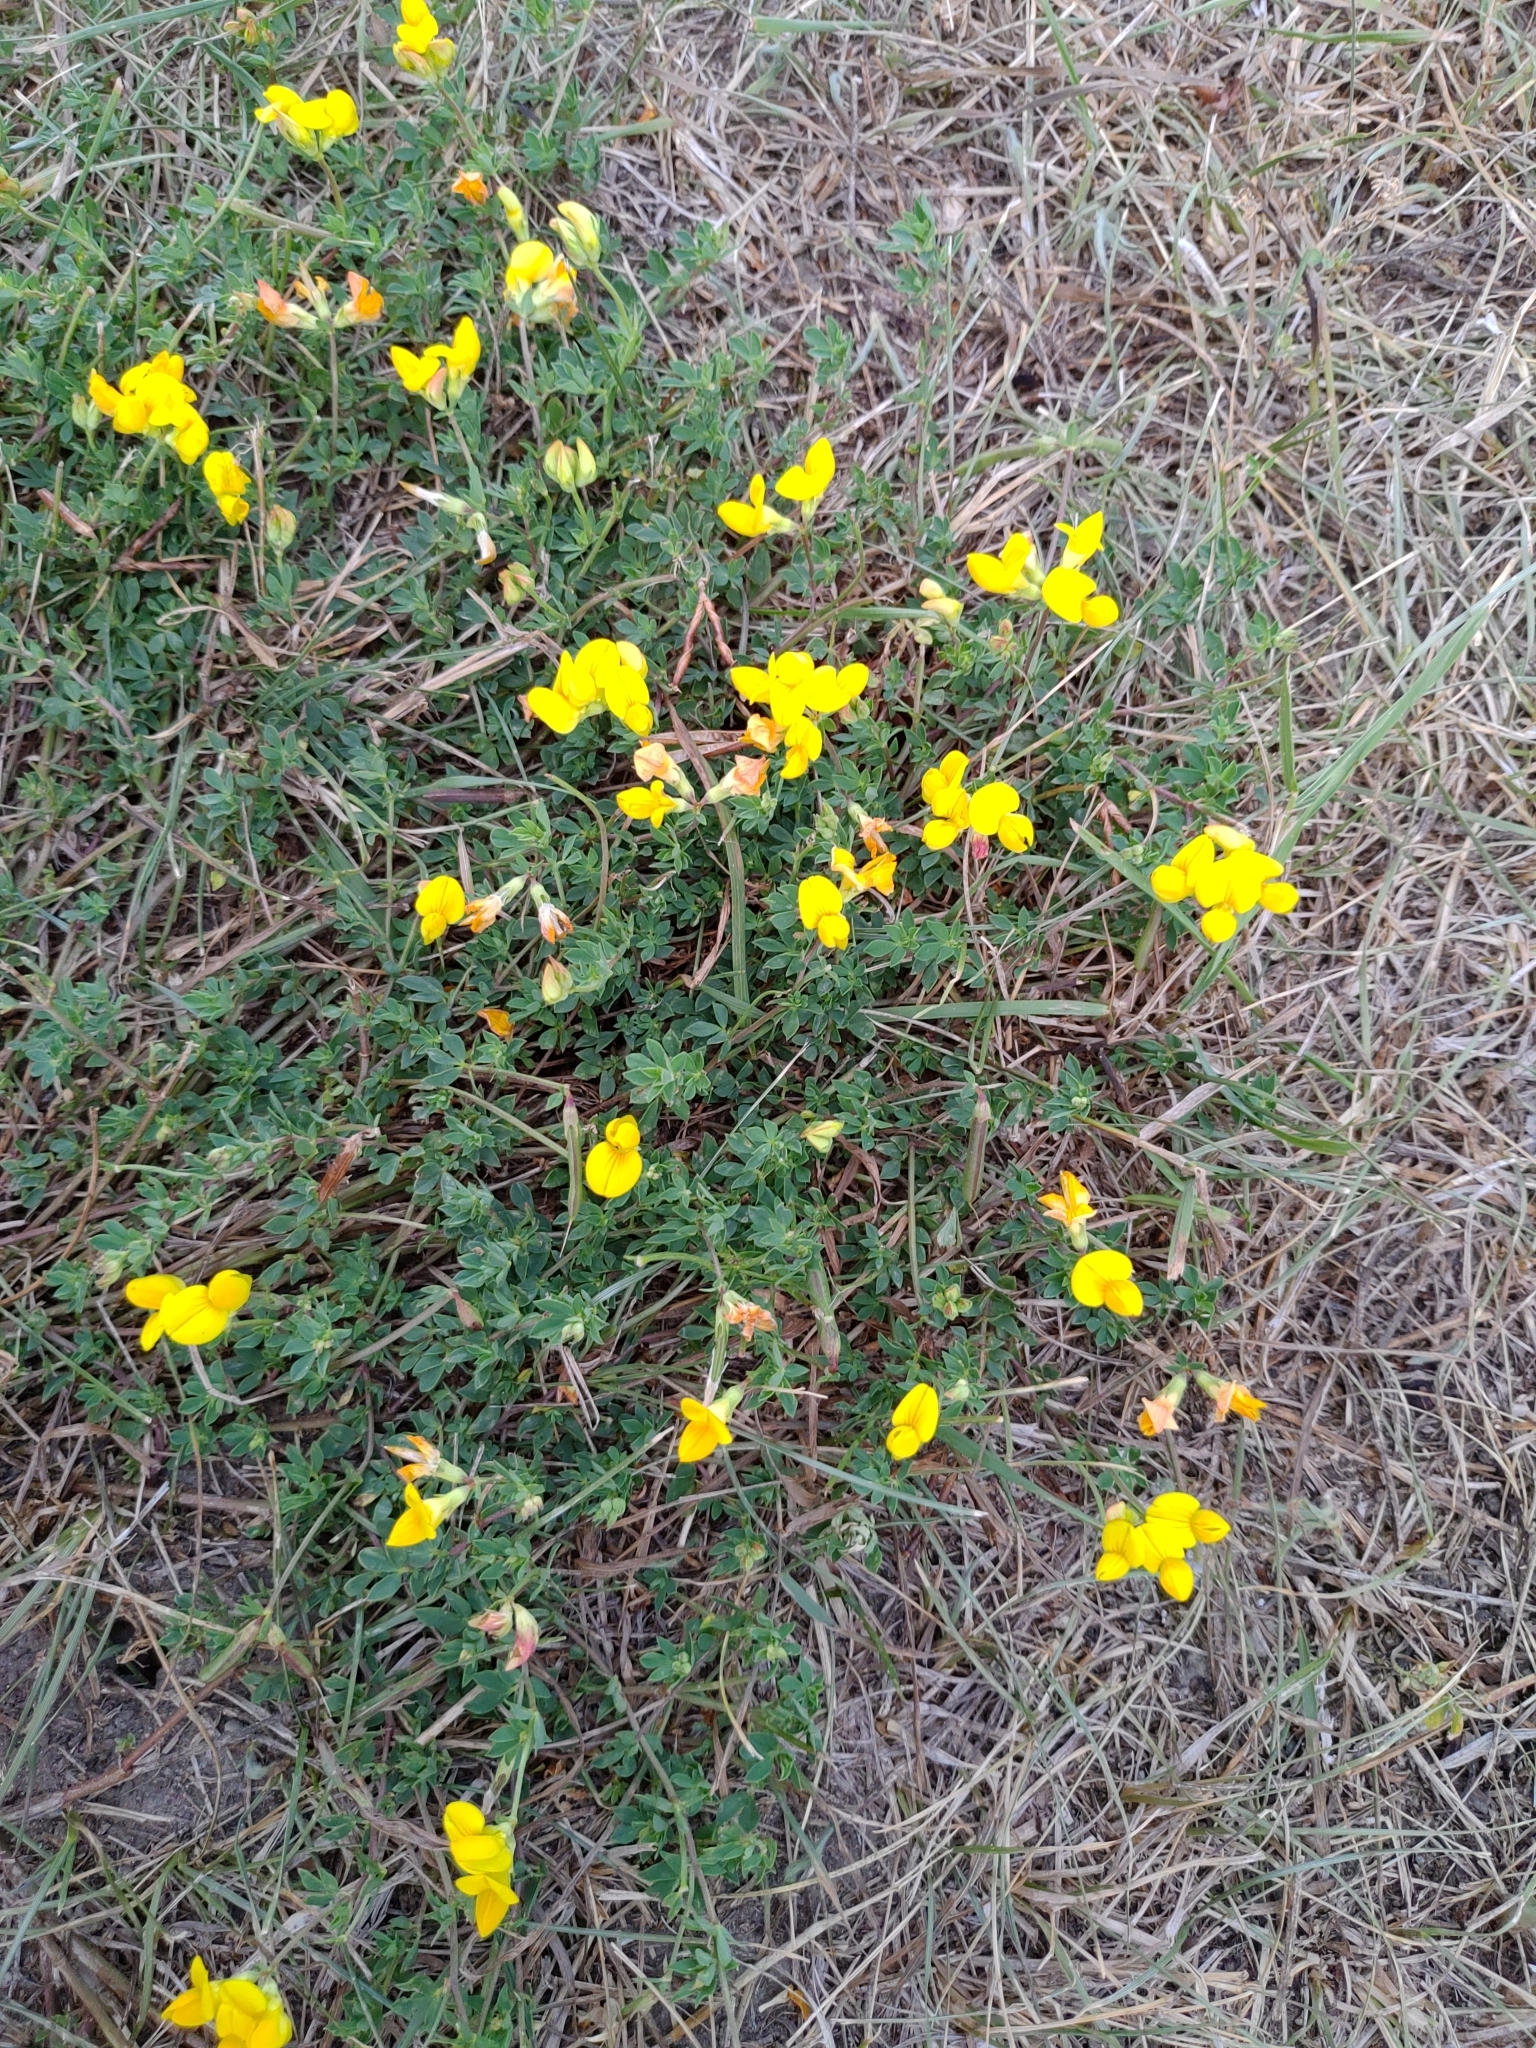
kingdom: Plantae
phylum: Tracheophyta
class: Magnoliopsida
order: Fabales
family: Fabaceae
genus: Lotus
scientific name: Lotus corniculatus
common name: Common bird's-foot-trefoil
